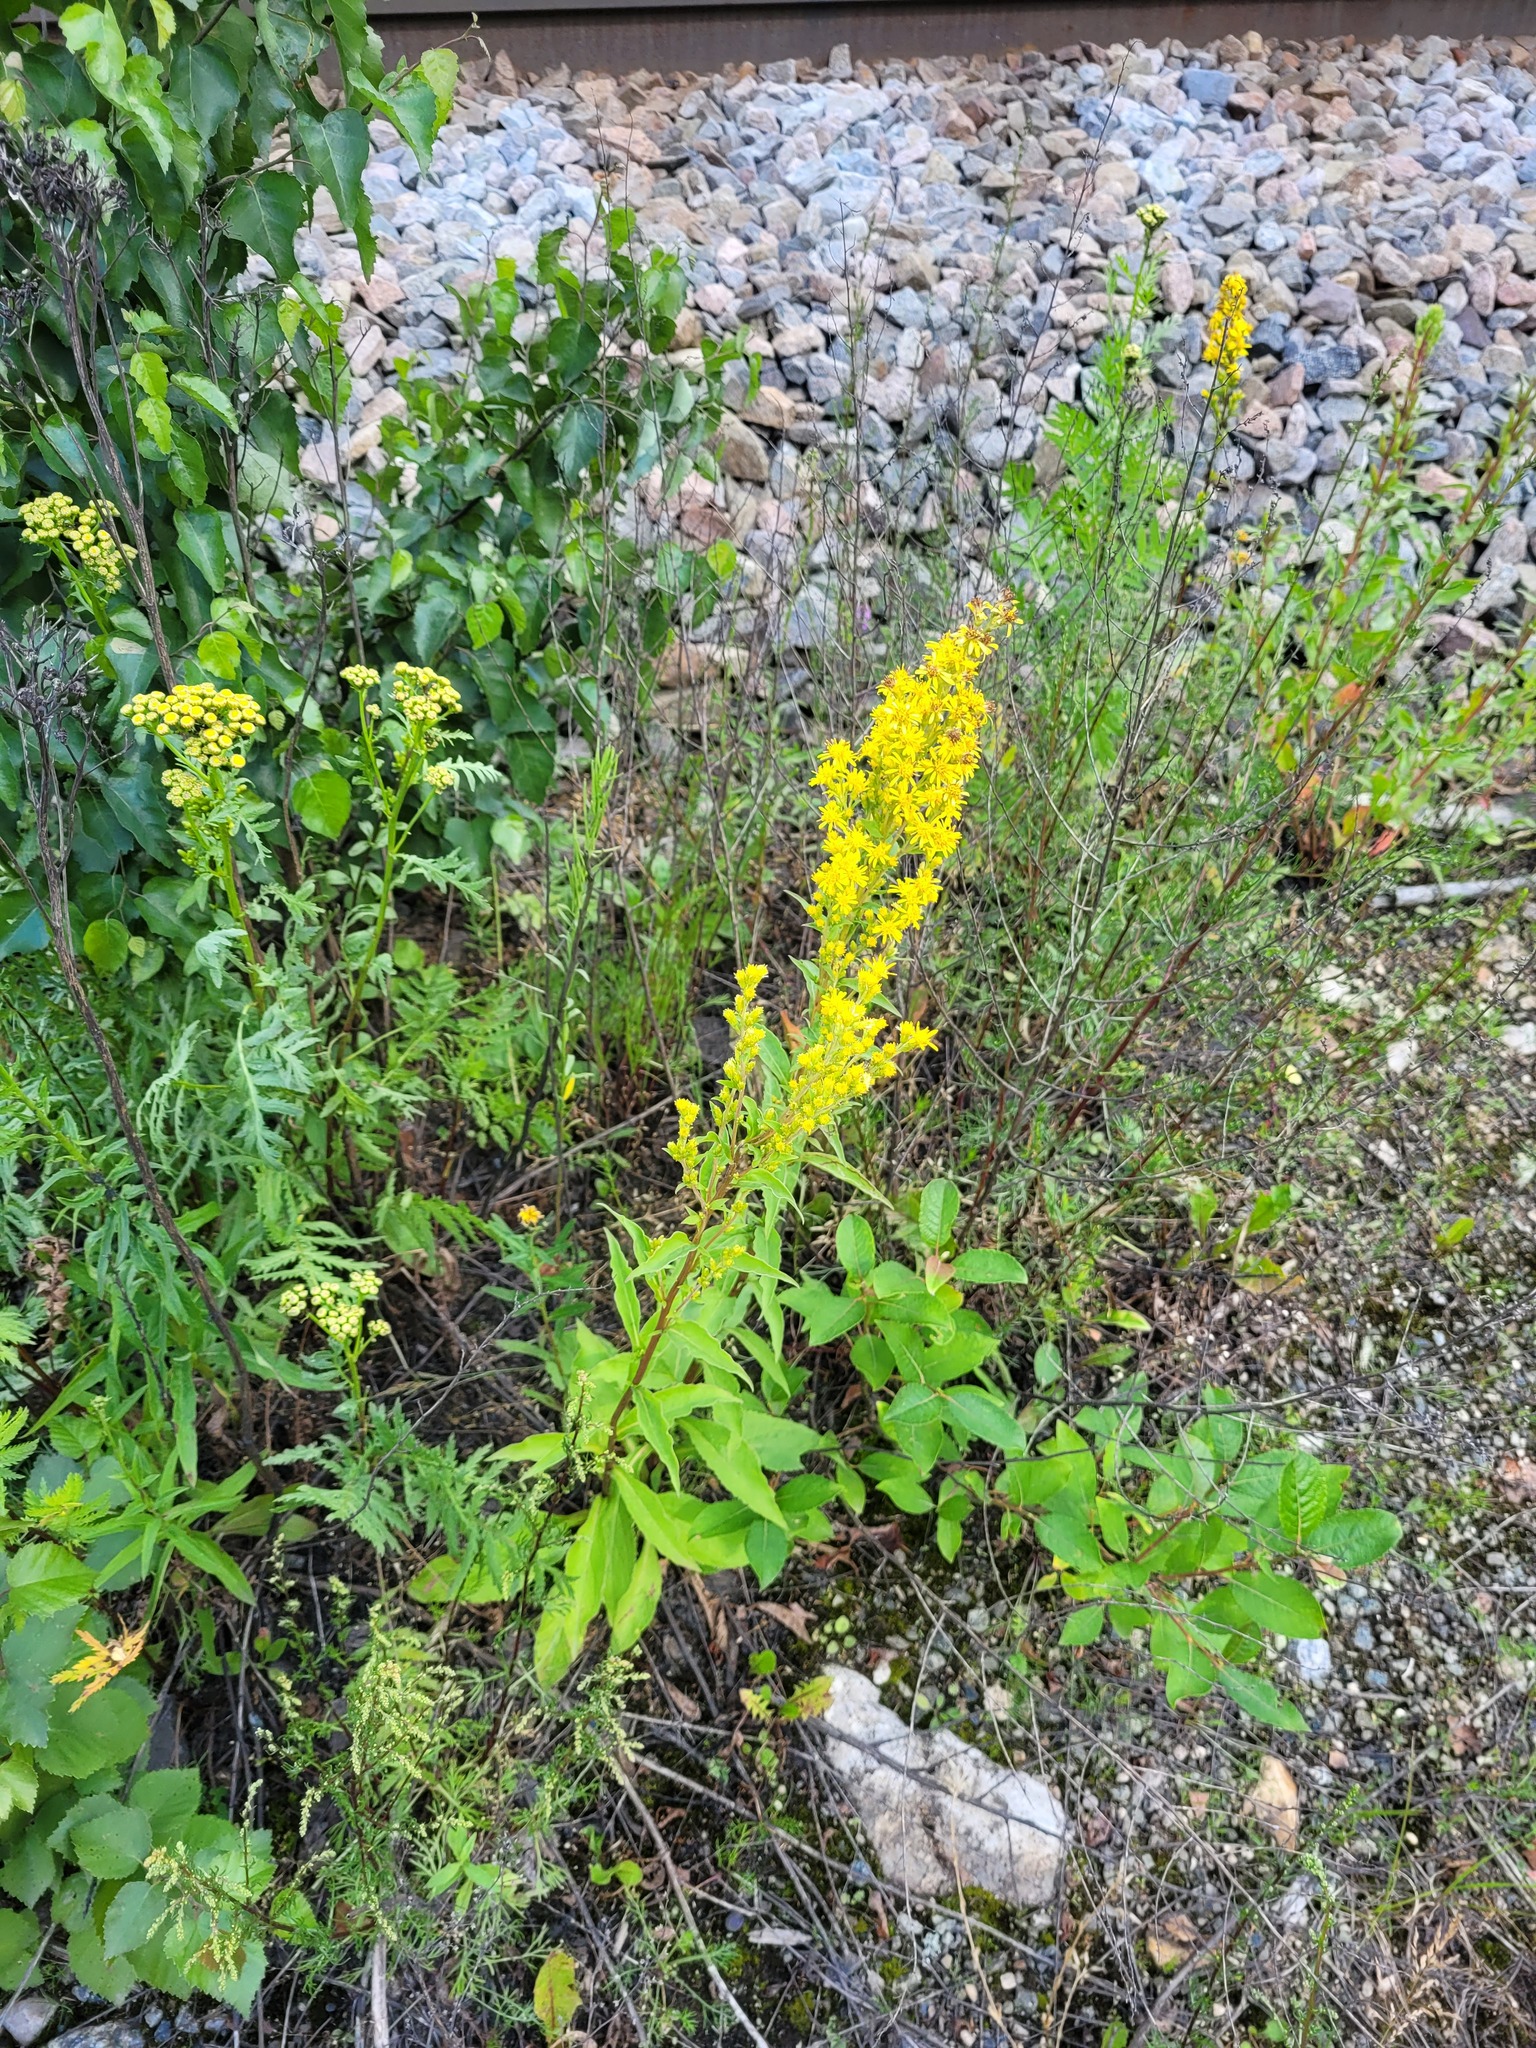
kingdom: Plantae
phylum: Tracheophyta
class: Magnoliopsida
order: Asterales
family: Asteraceae
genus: Solidago
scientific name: Solidago virgaurea
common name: Goldenrod
